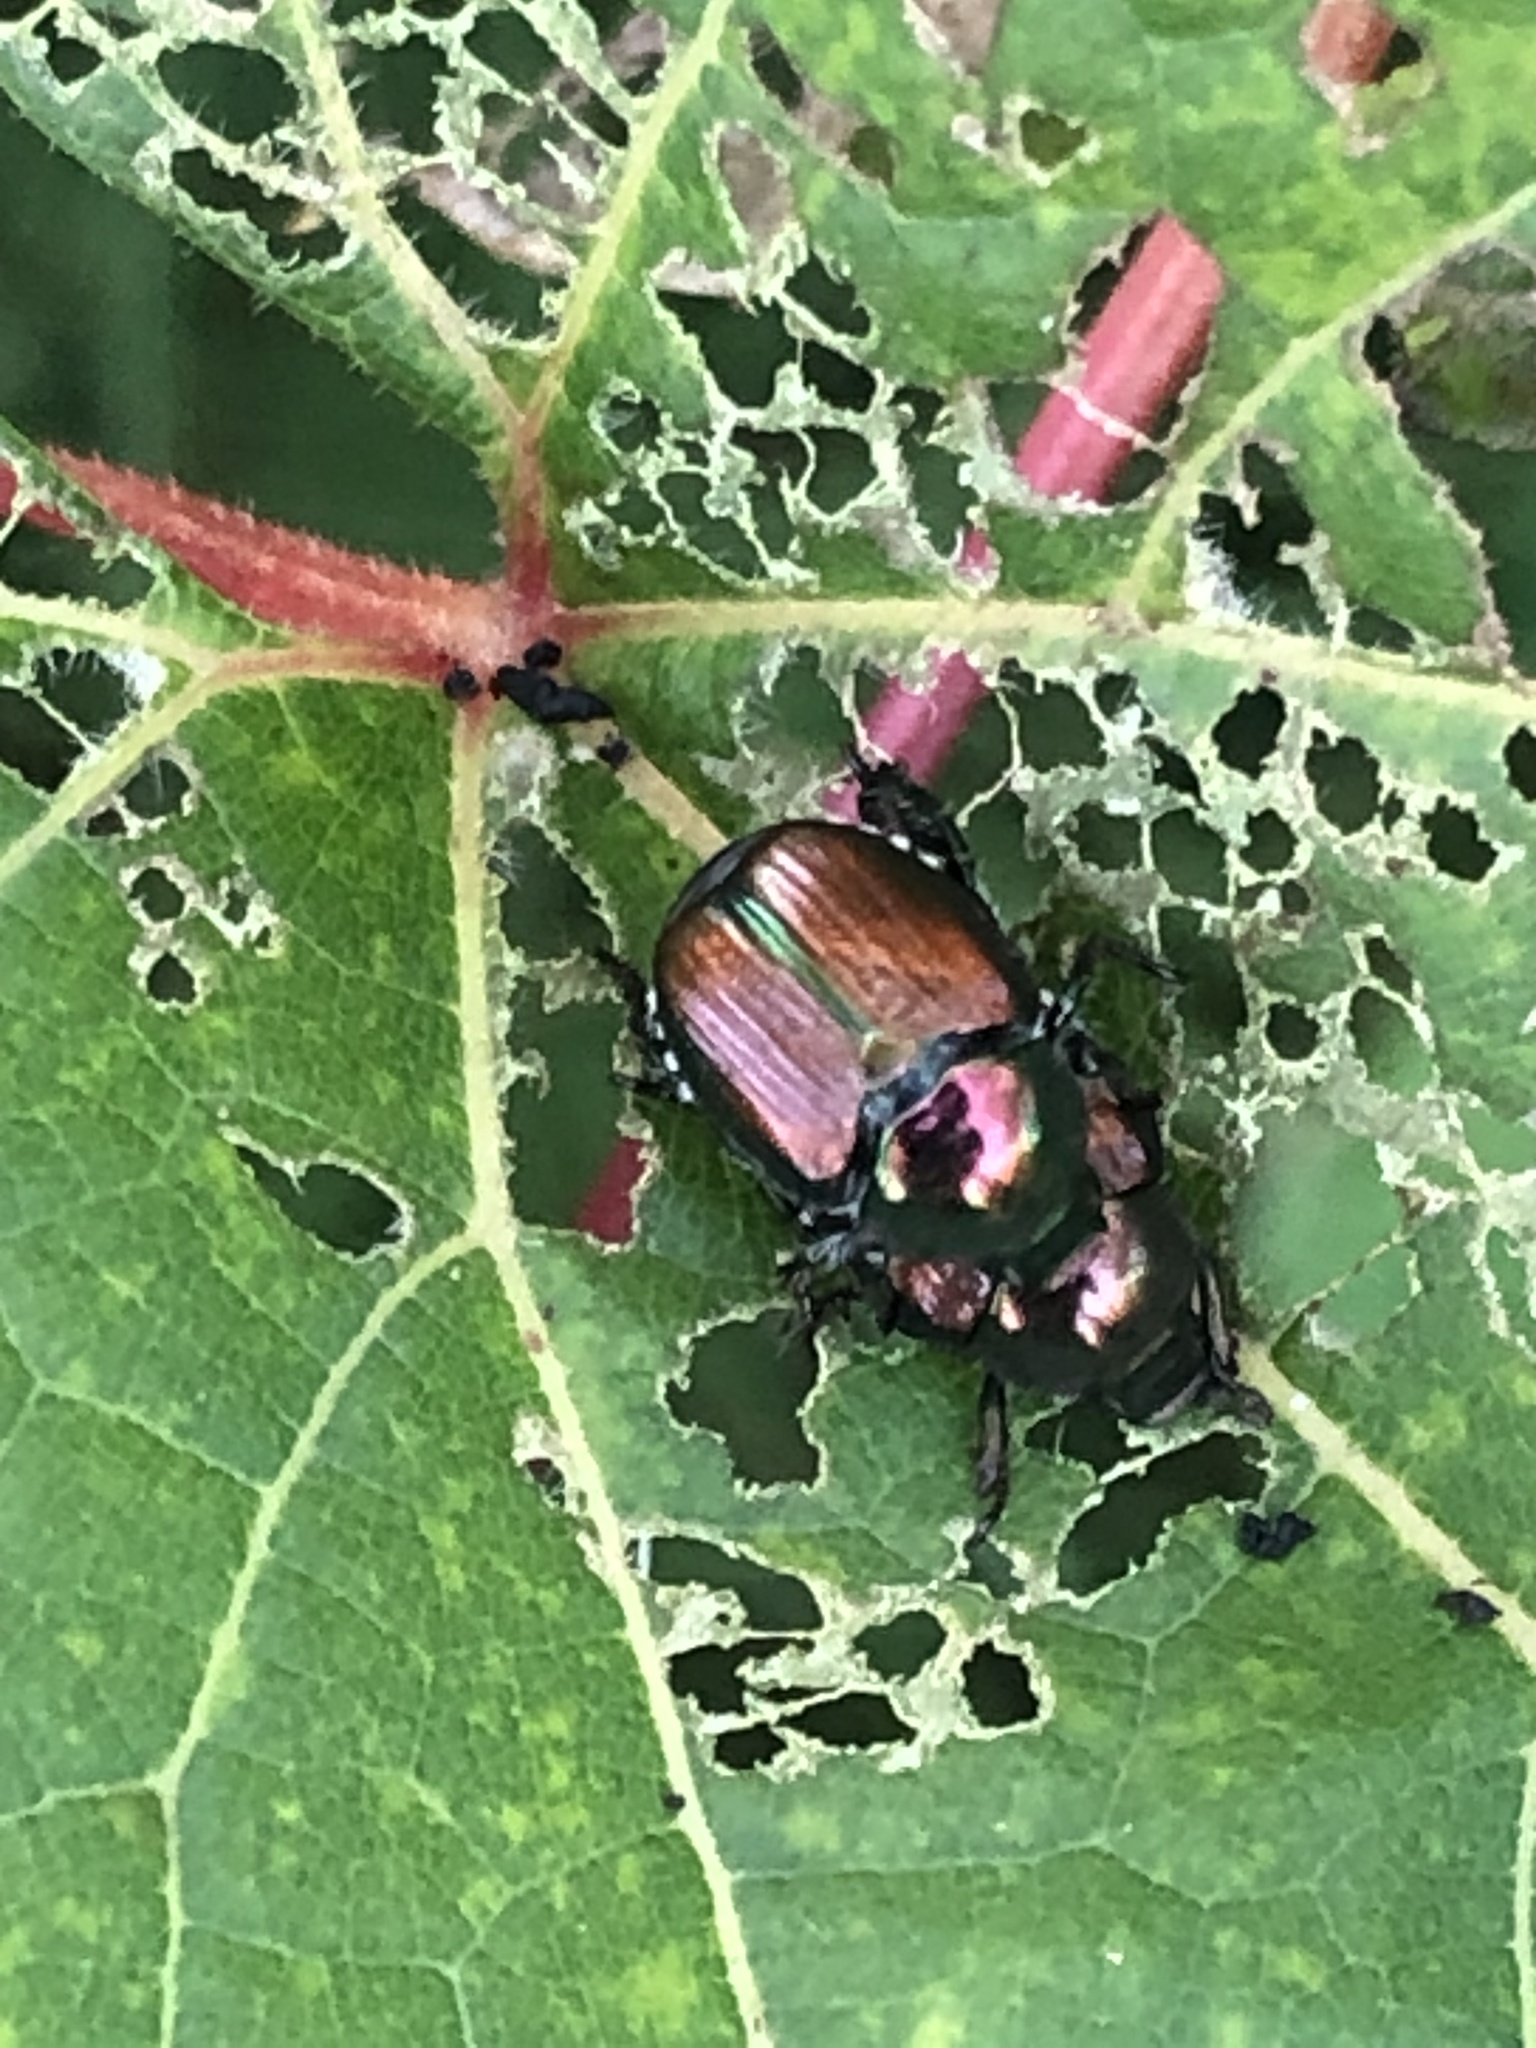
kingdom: Animalia
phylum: Arthropoda
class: Insecta
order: Coleoptera
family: Scarabaeidae
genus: Popillia
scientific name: Popillia japonica
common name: Japanese beetle
